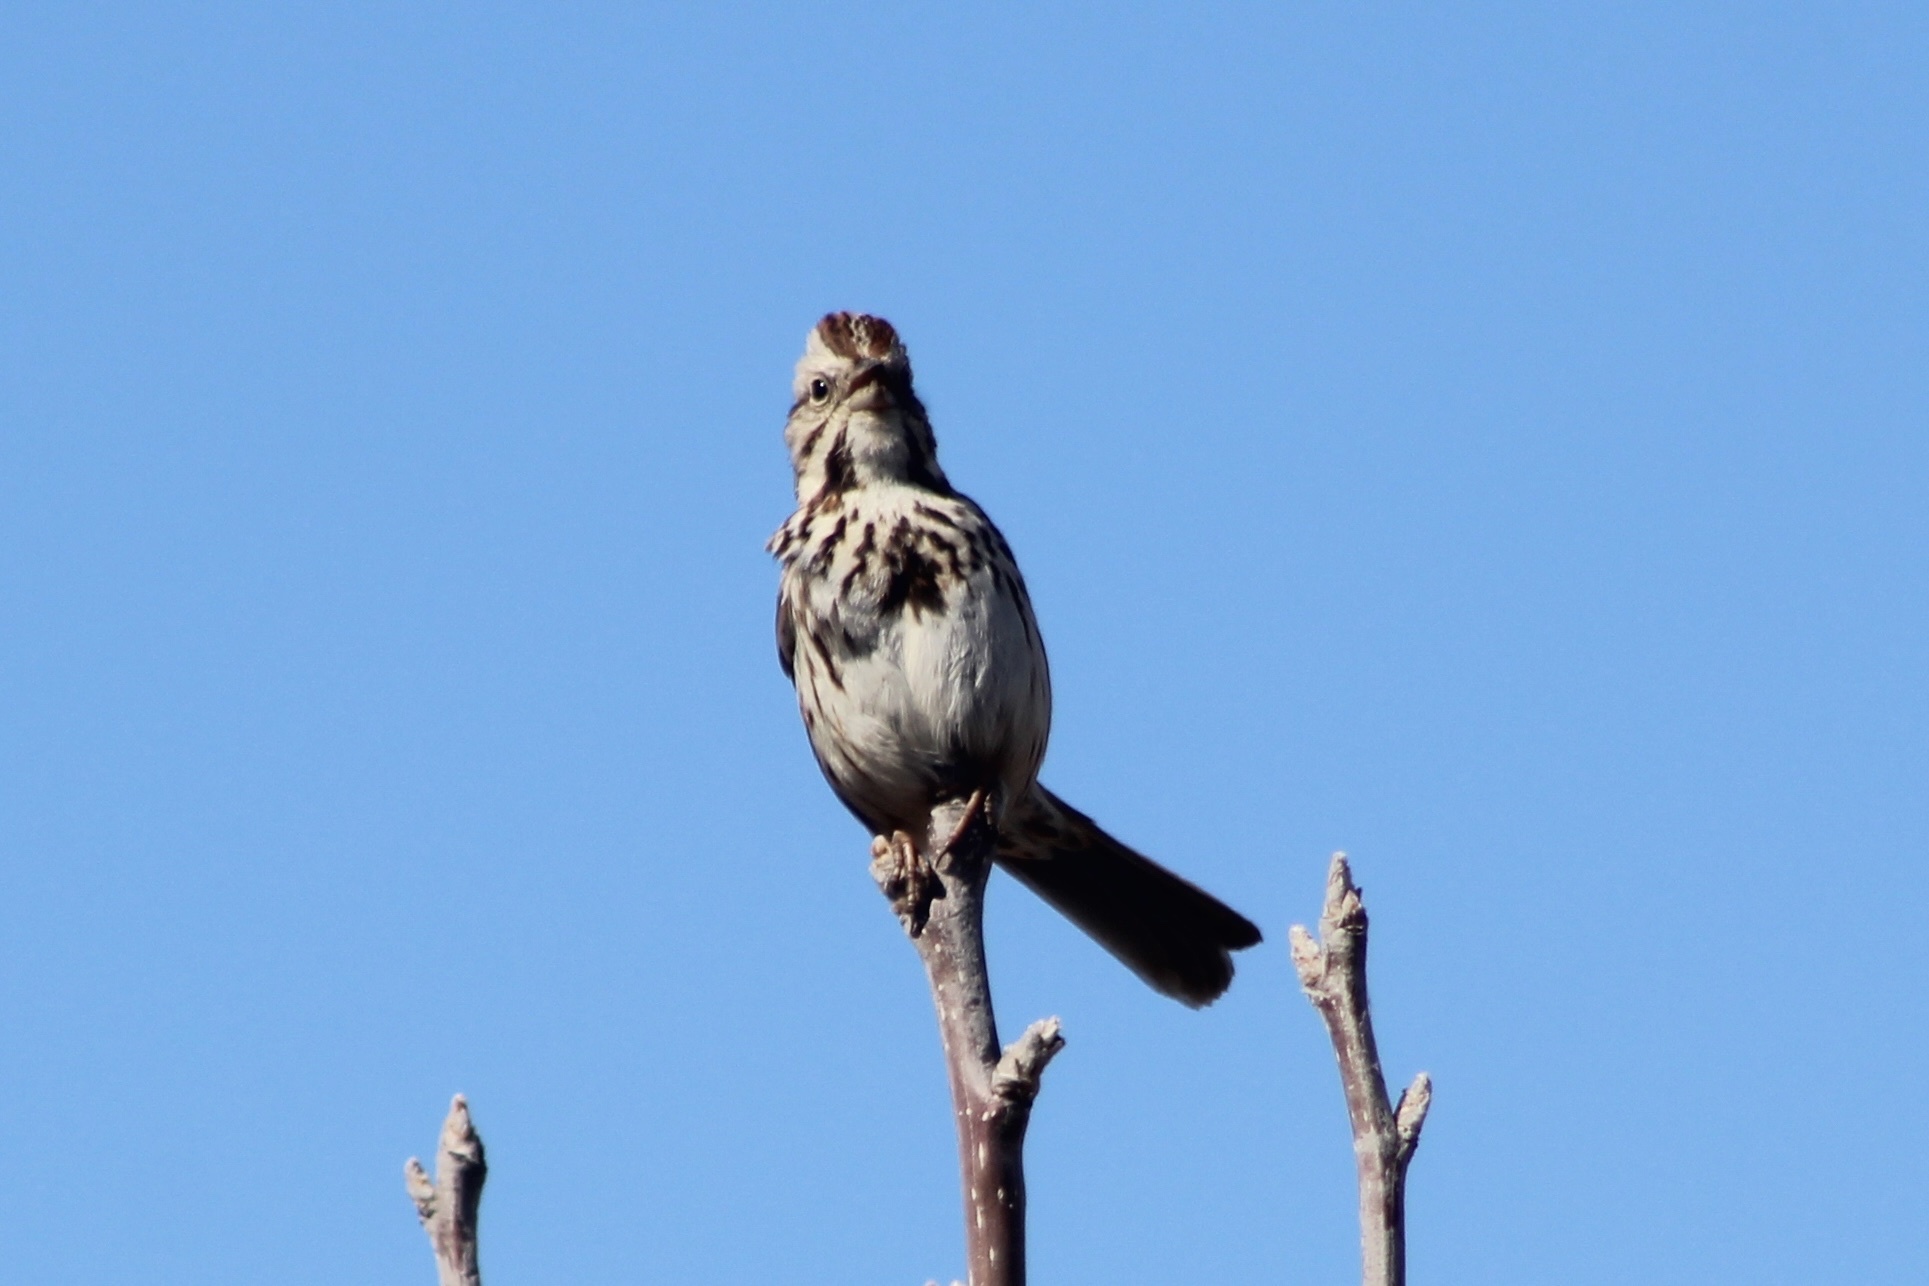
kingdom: Animalia
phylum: Chordata
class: Aves
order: Passeriformes
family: Passerellidae
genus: Melospiza
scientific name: Melospiza melodia
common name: Song sparrow
